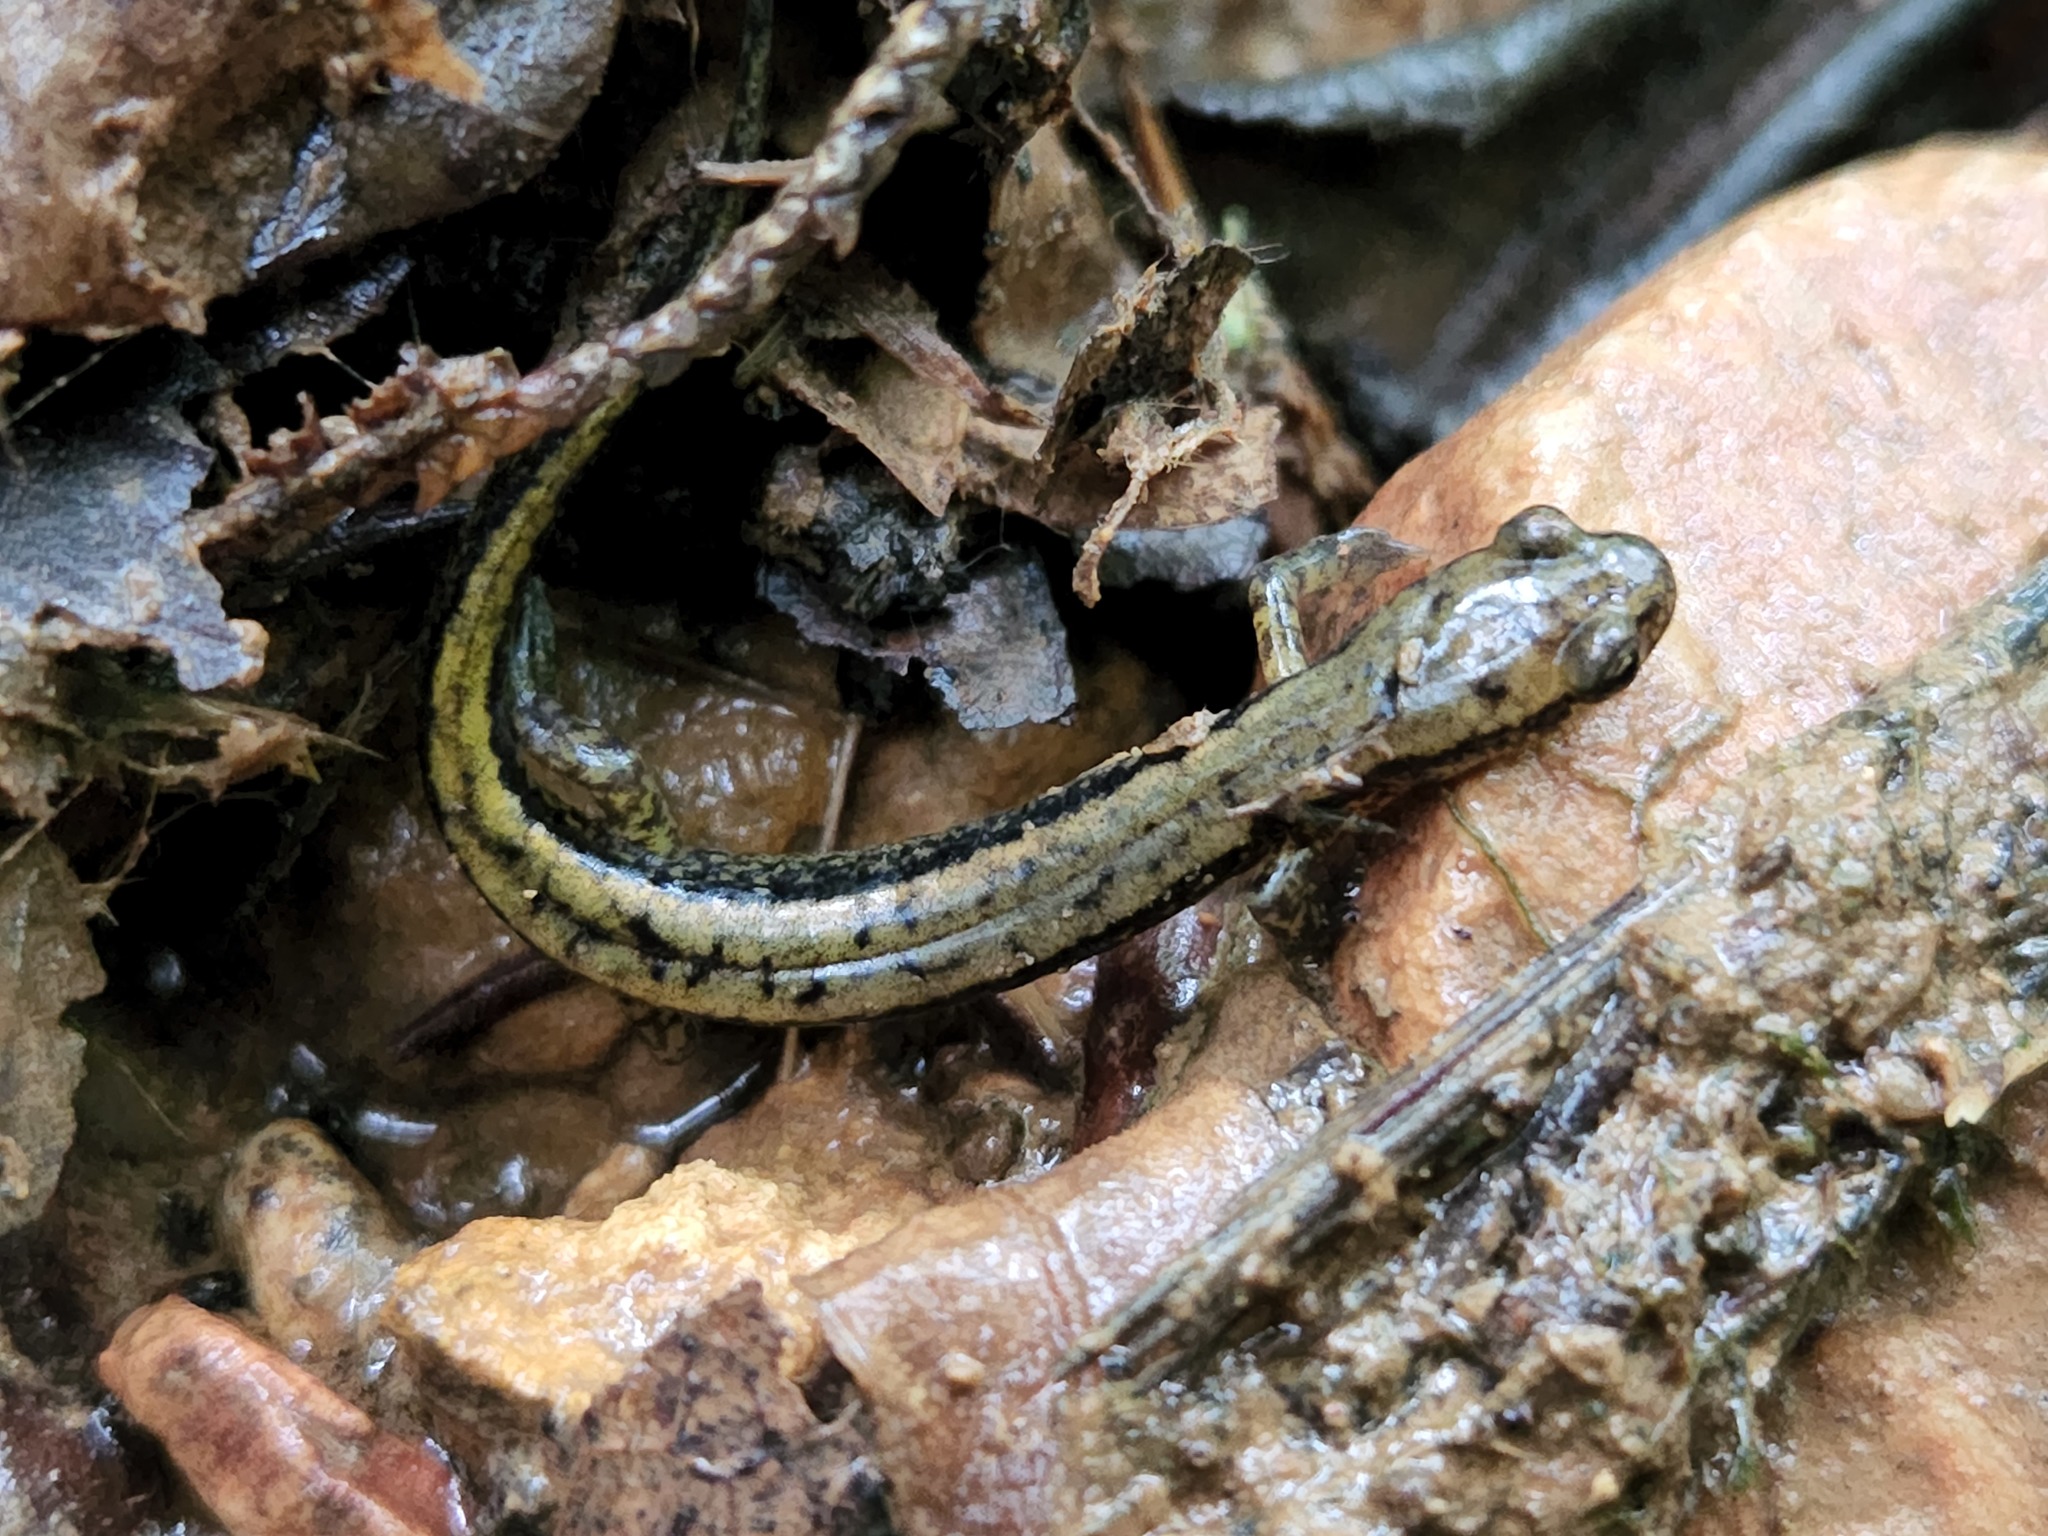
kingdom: Animalia
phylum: Chordata
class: Amphibia
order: Caudata
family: Plethodontidae
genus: Eurycea
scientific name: Eurycea cirrigera
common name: Southern two-lined salamander
